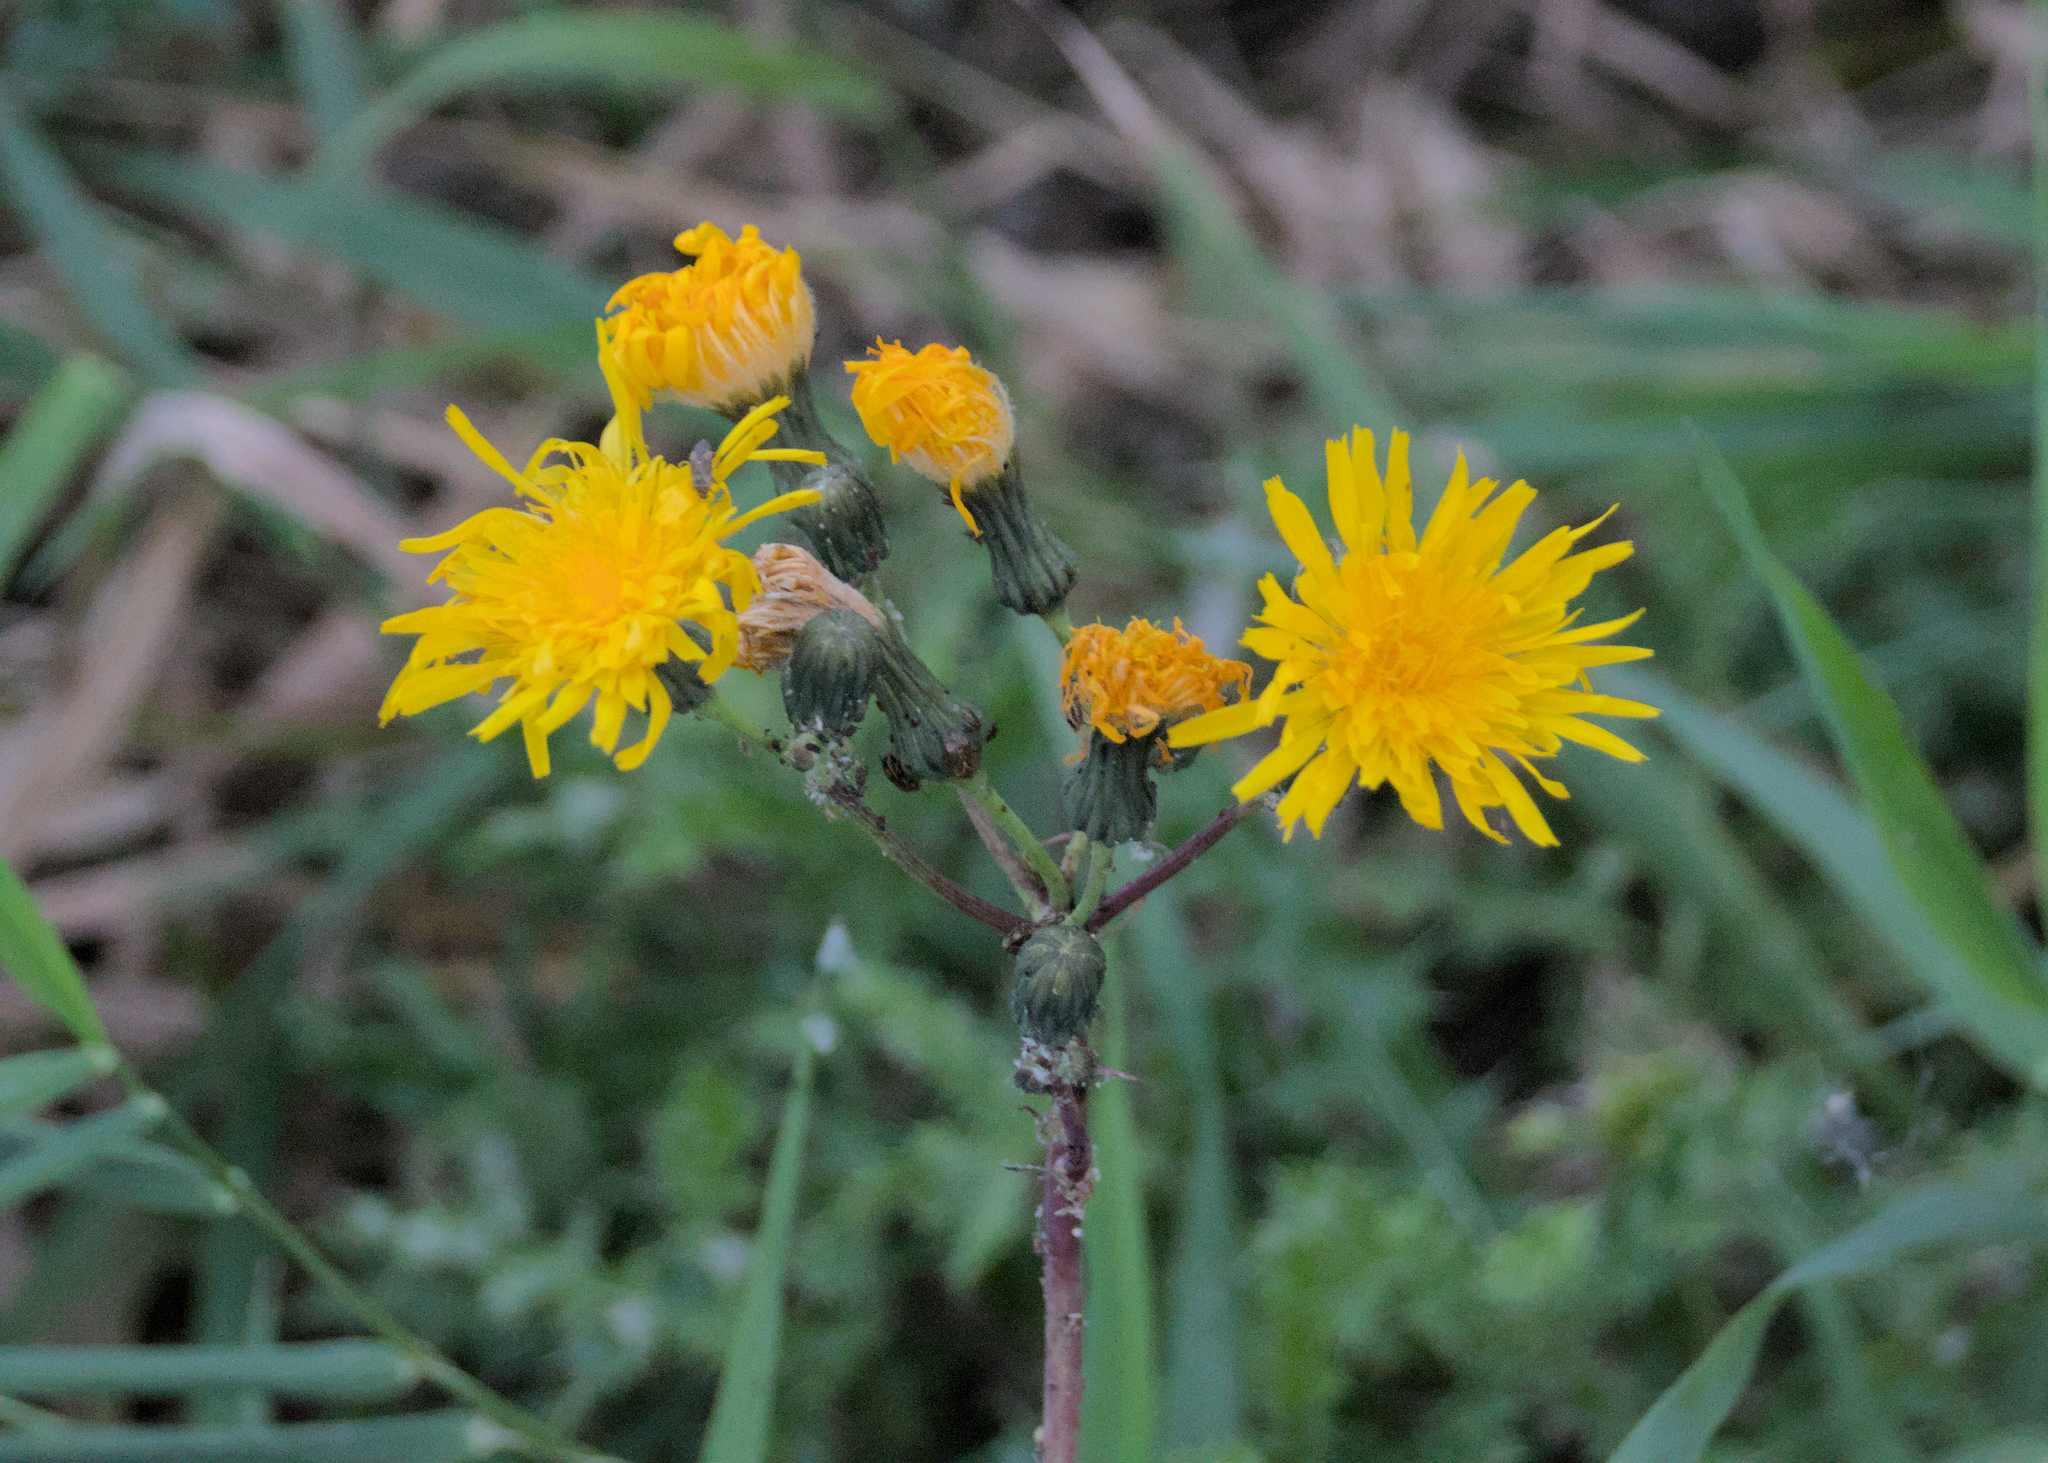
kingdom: Plantae
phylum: Tracheophyta
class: Magnoliopsida
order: Asterales
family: Asteraceae
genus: Sonchus
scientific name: Sonchus arvensis
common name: Perennial sow-thistle
